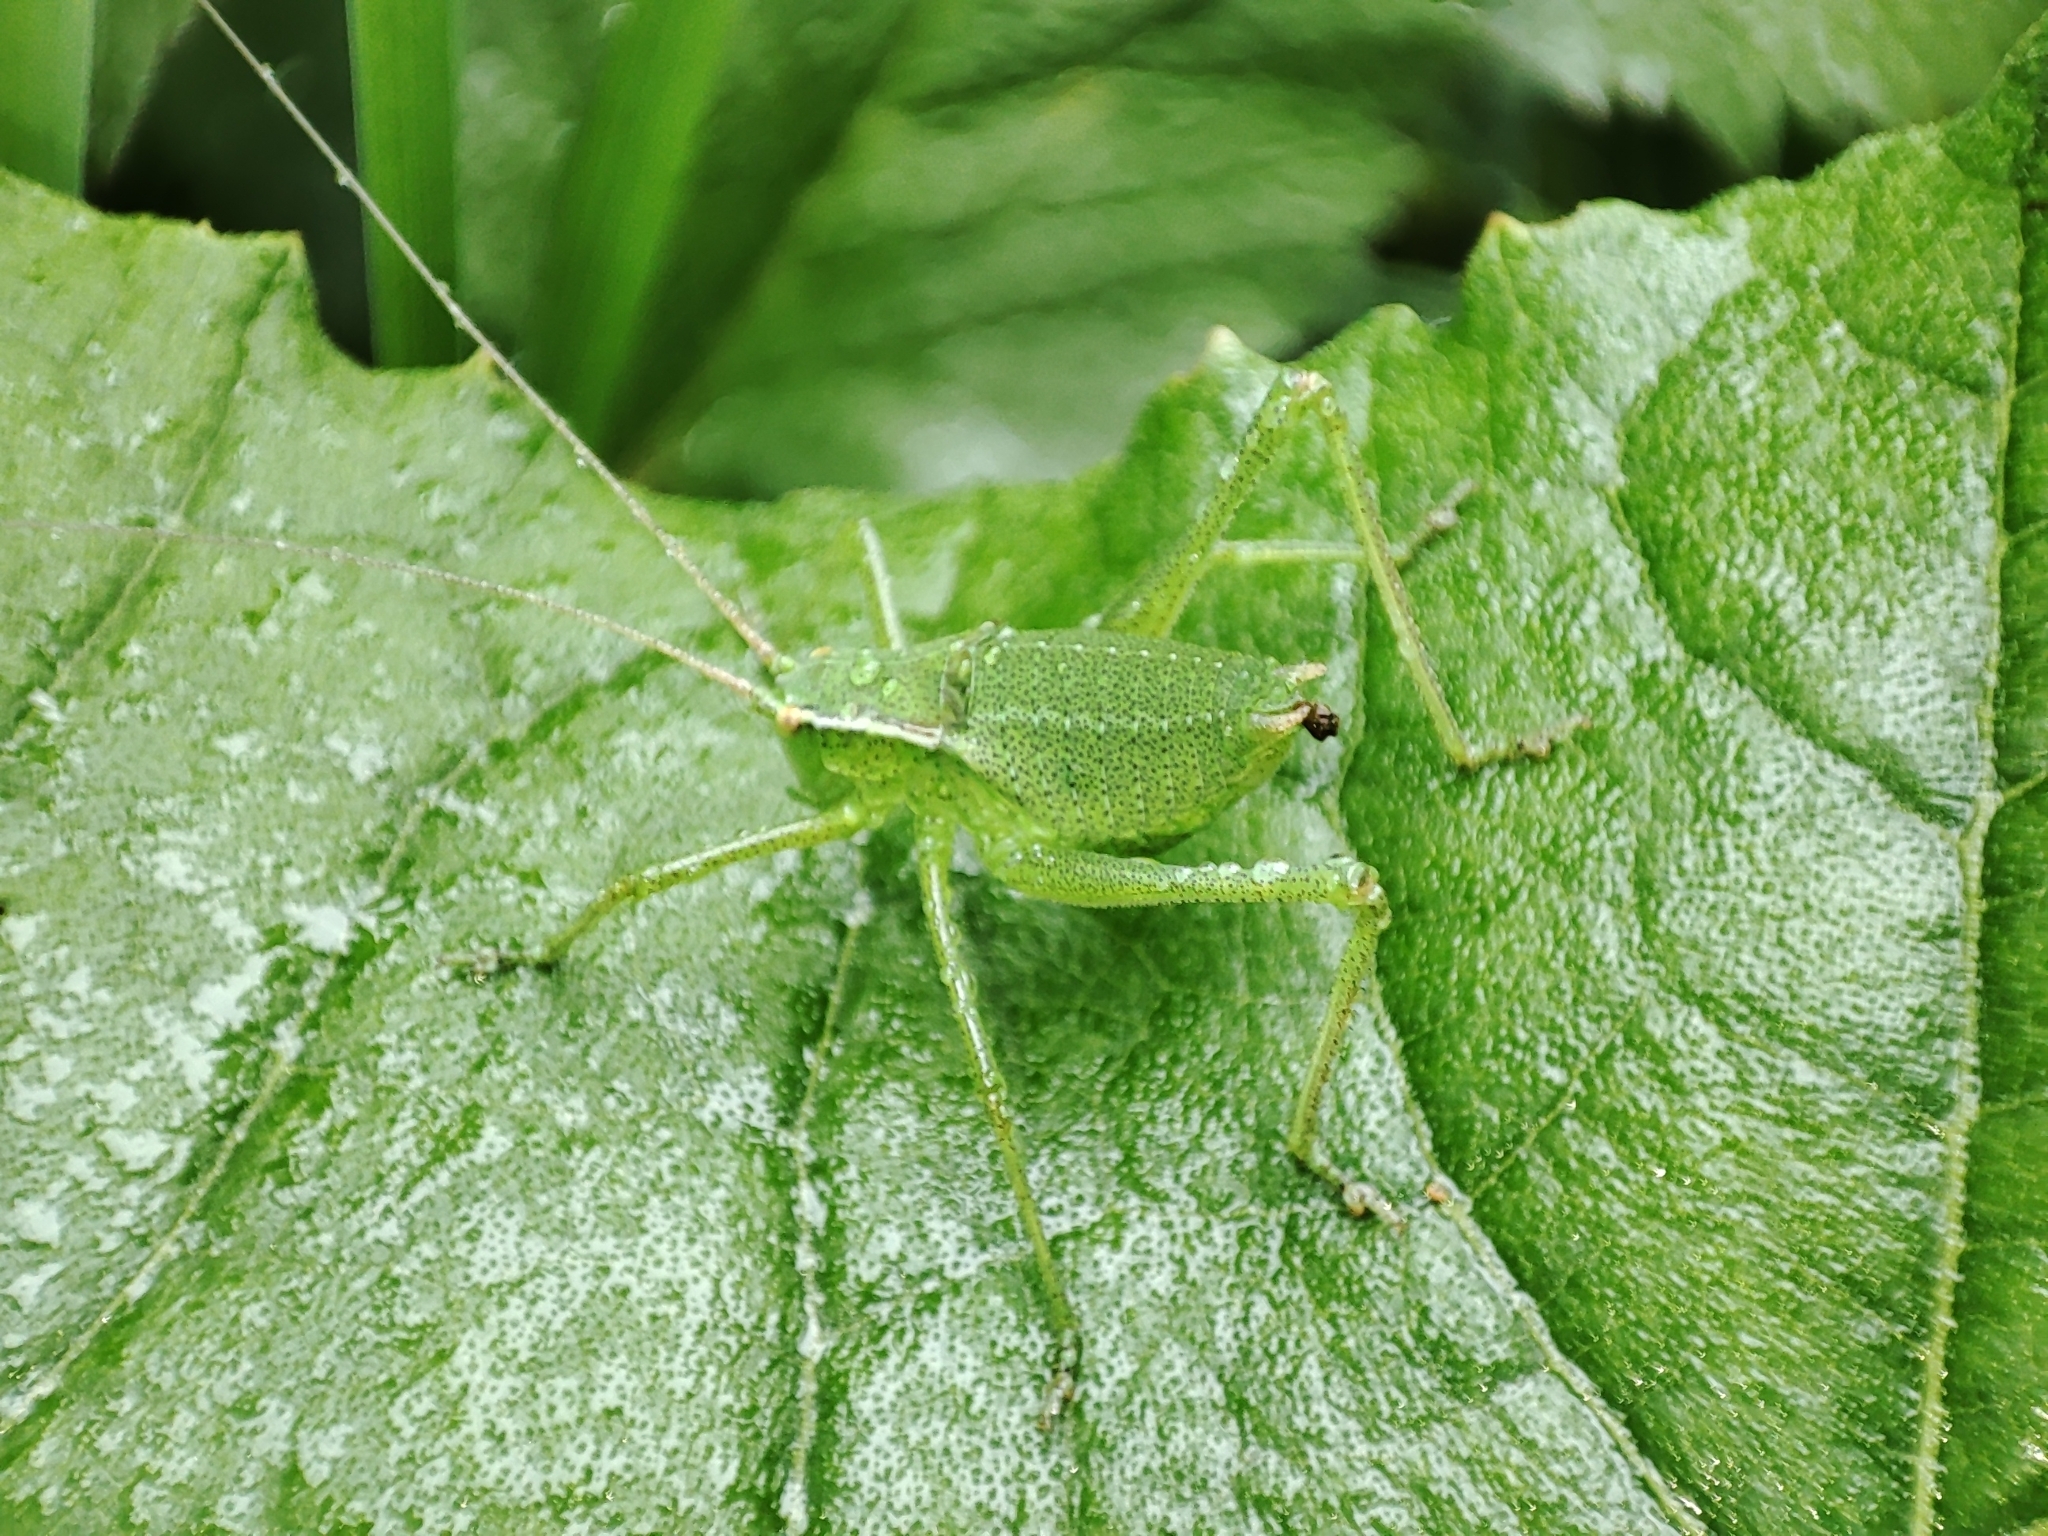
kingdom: Animalia
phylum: Arthropoda
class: Insecta
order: Orthoptera
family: Tettigoniidae
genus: Leptophyes
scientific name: Leptophyes punctatissima
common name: Speckled bush-cricket
